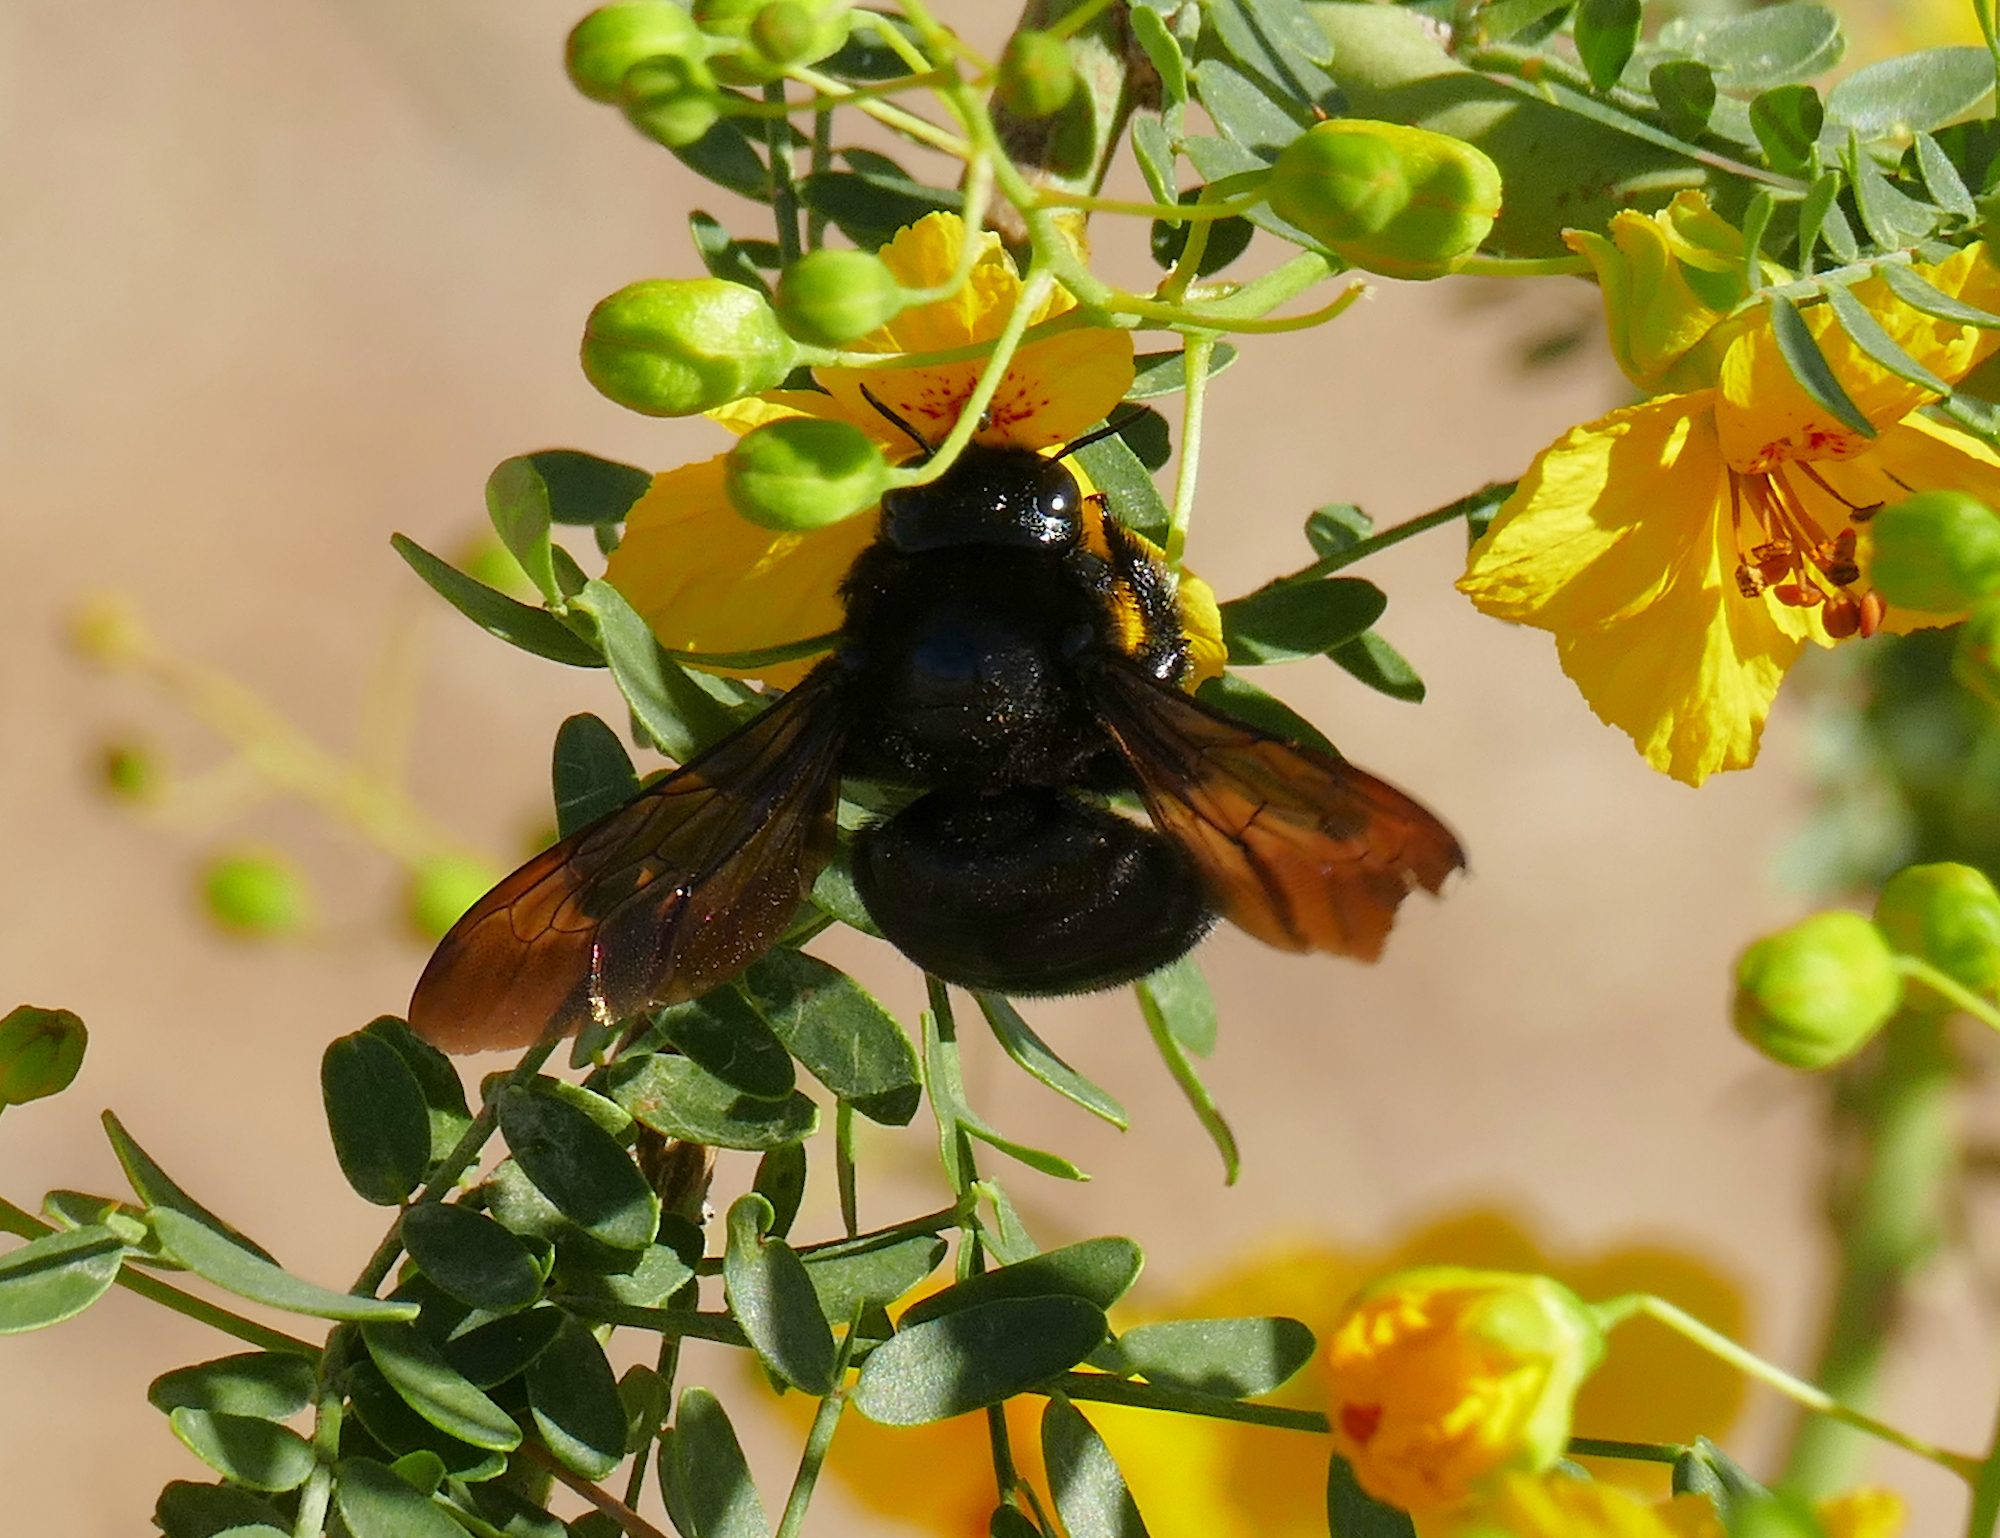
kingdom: Animalia
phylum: Arthropoda
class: Insecta
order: Hymenoptera
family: Apidae
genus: Xylocopa
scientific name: Xylocopa sonorina
